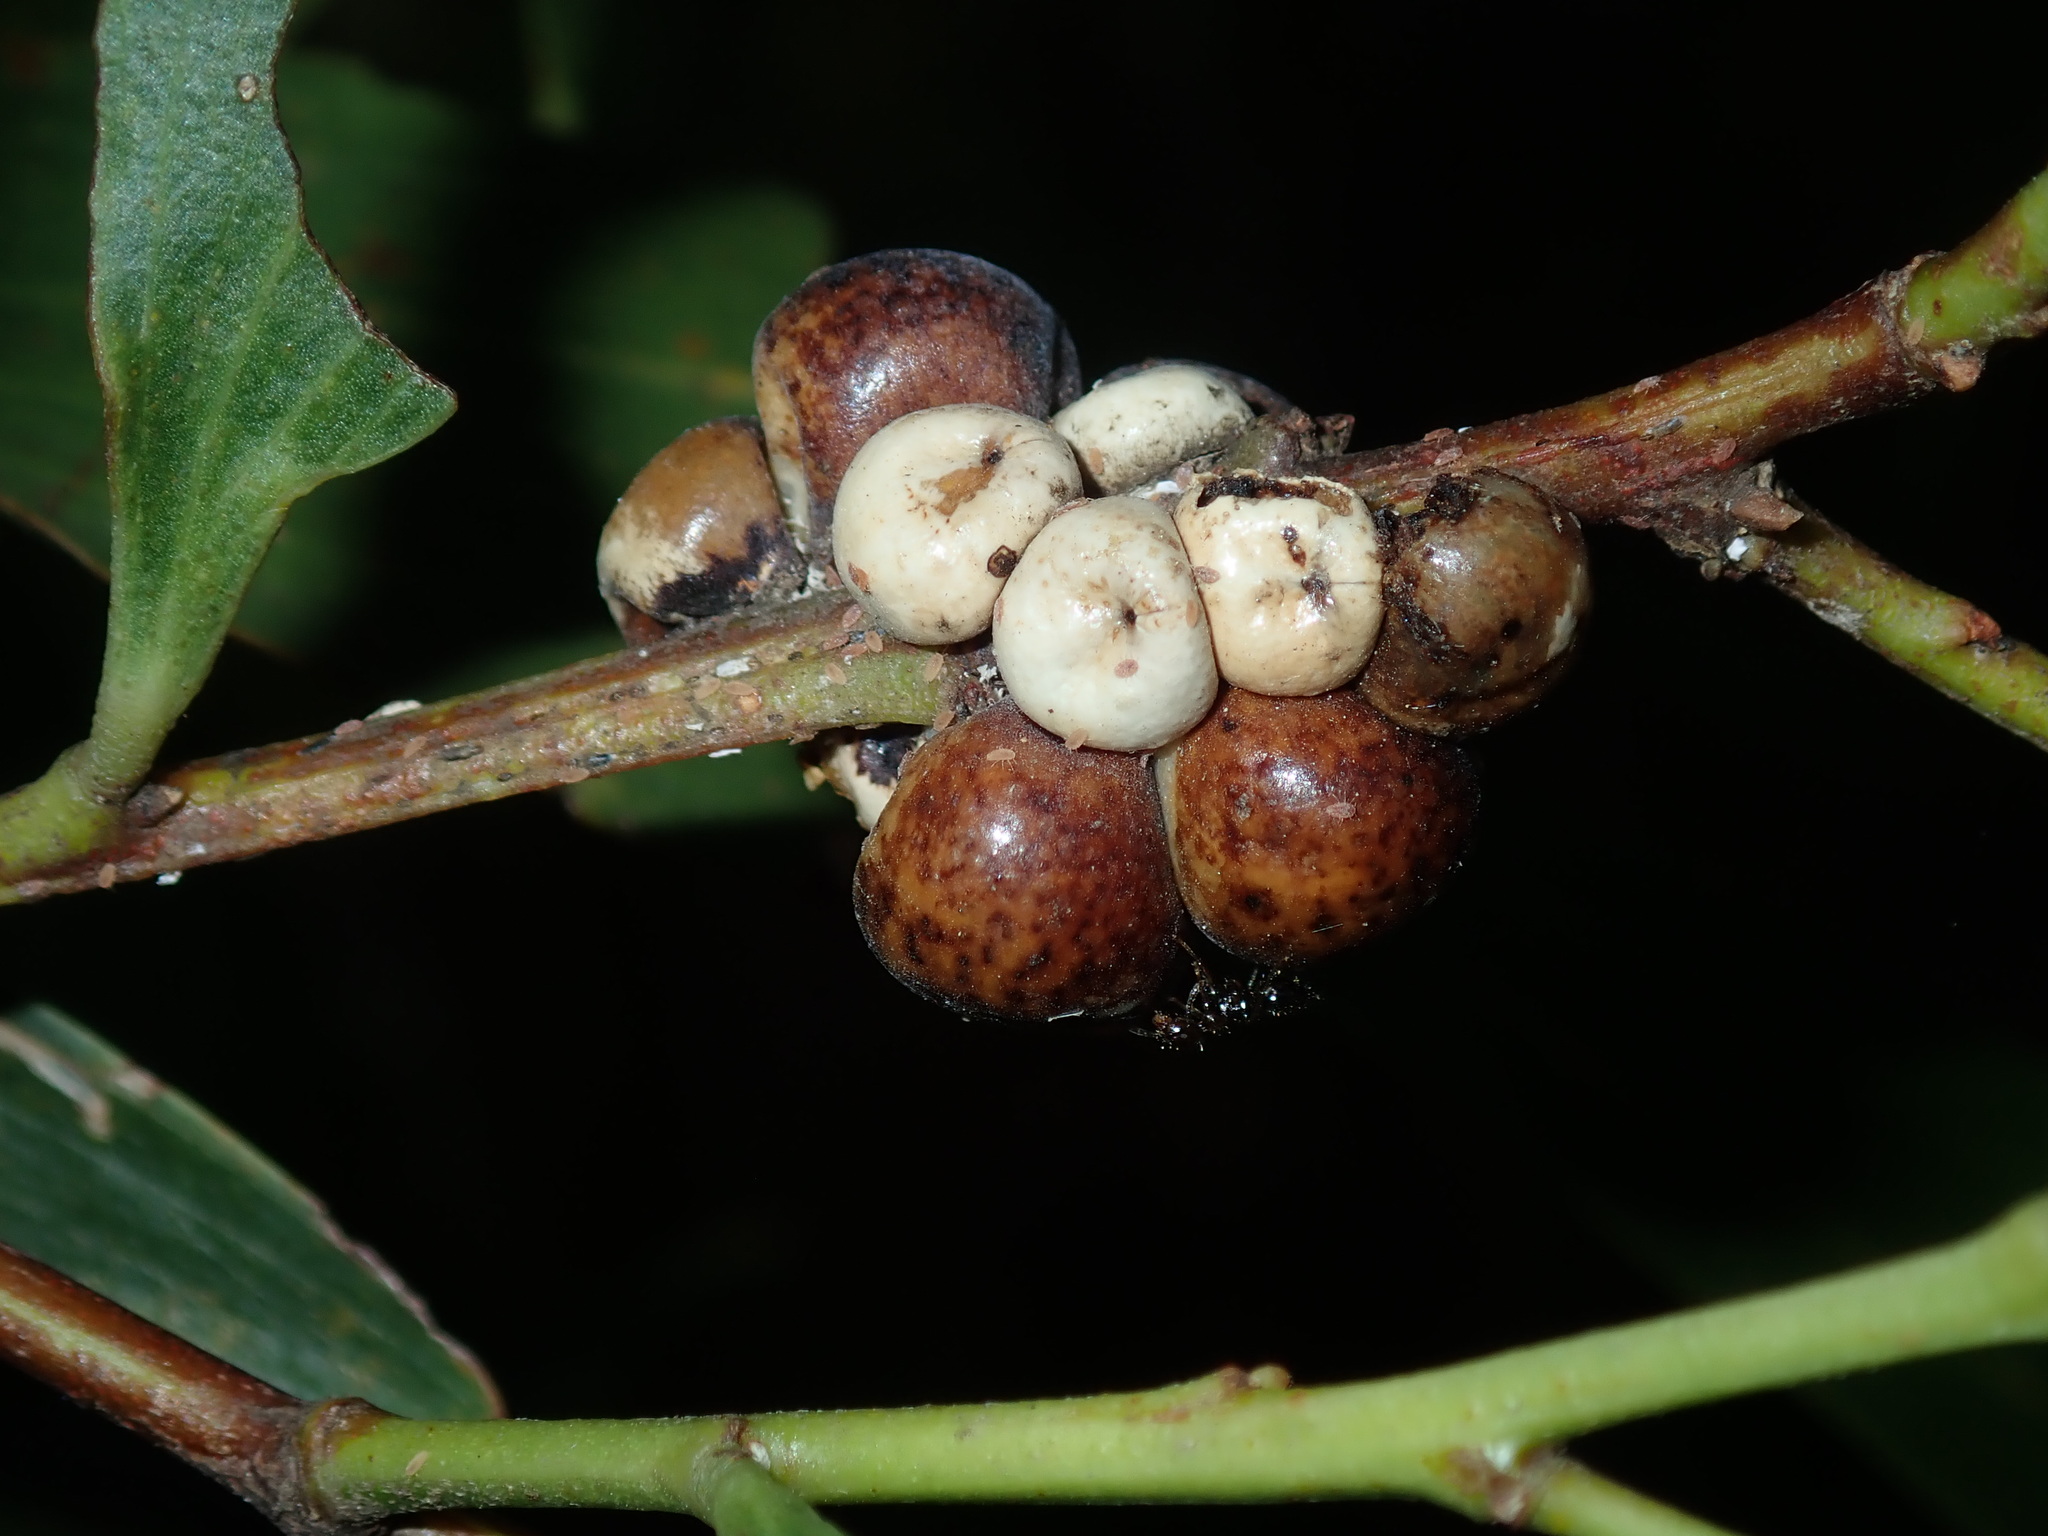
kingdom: Animalia
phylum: Arthropoda
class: Insecta
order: Hemiptera
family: Coccidae
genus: Cryptes
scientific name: Cryptes baccatus
